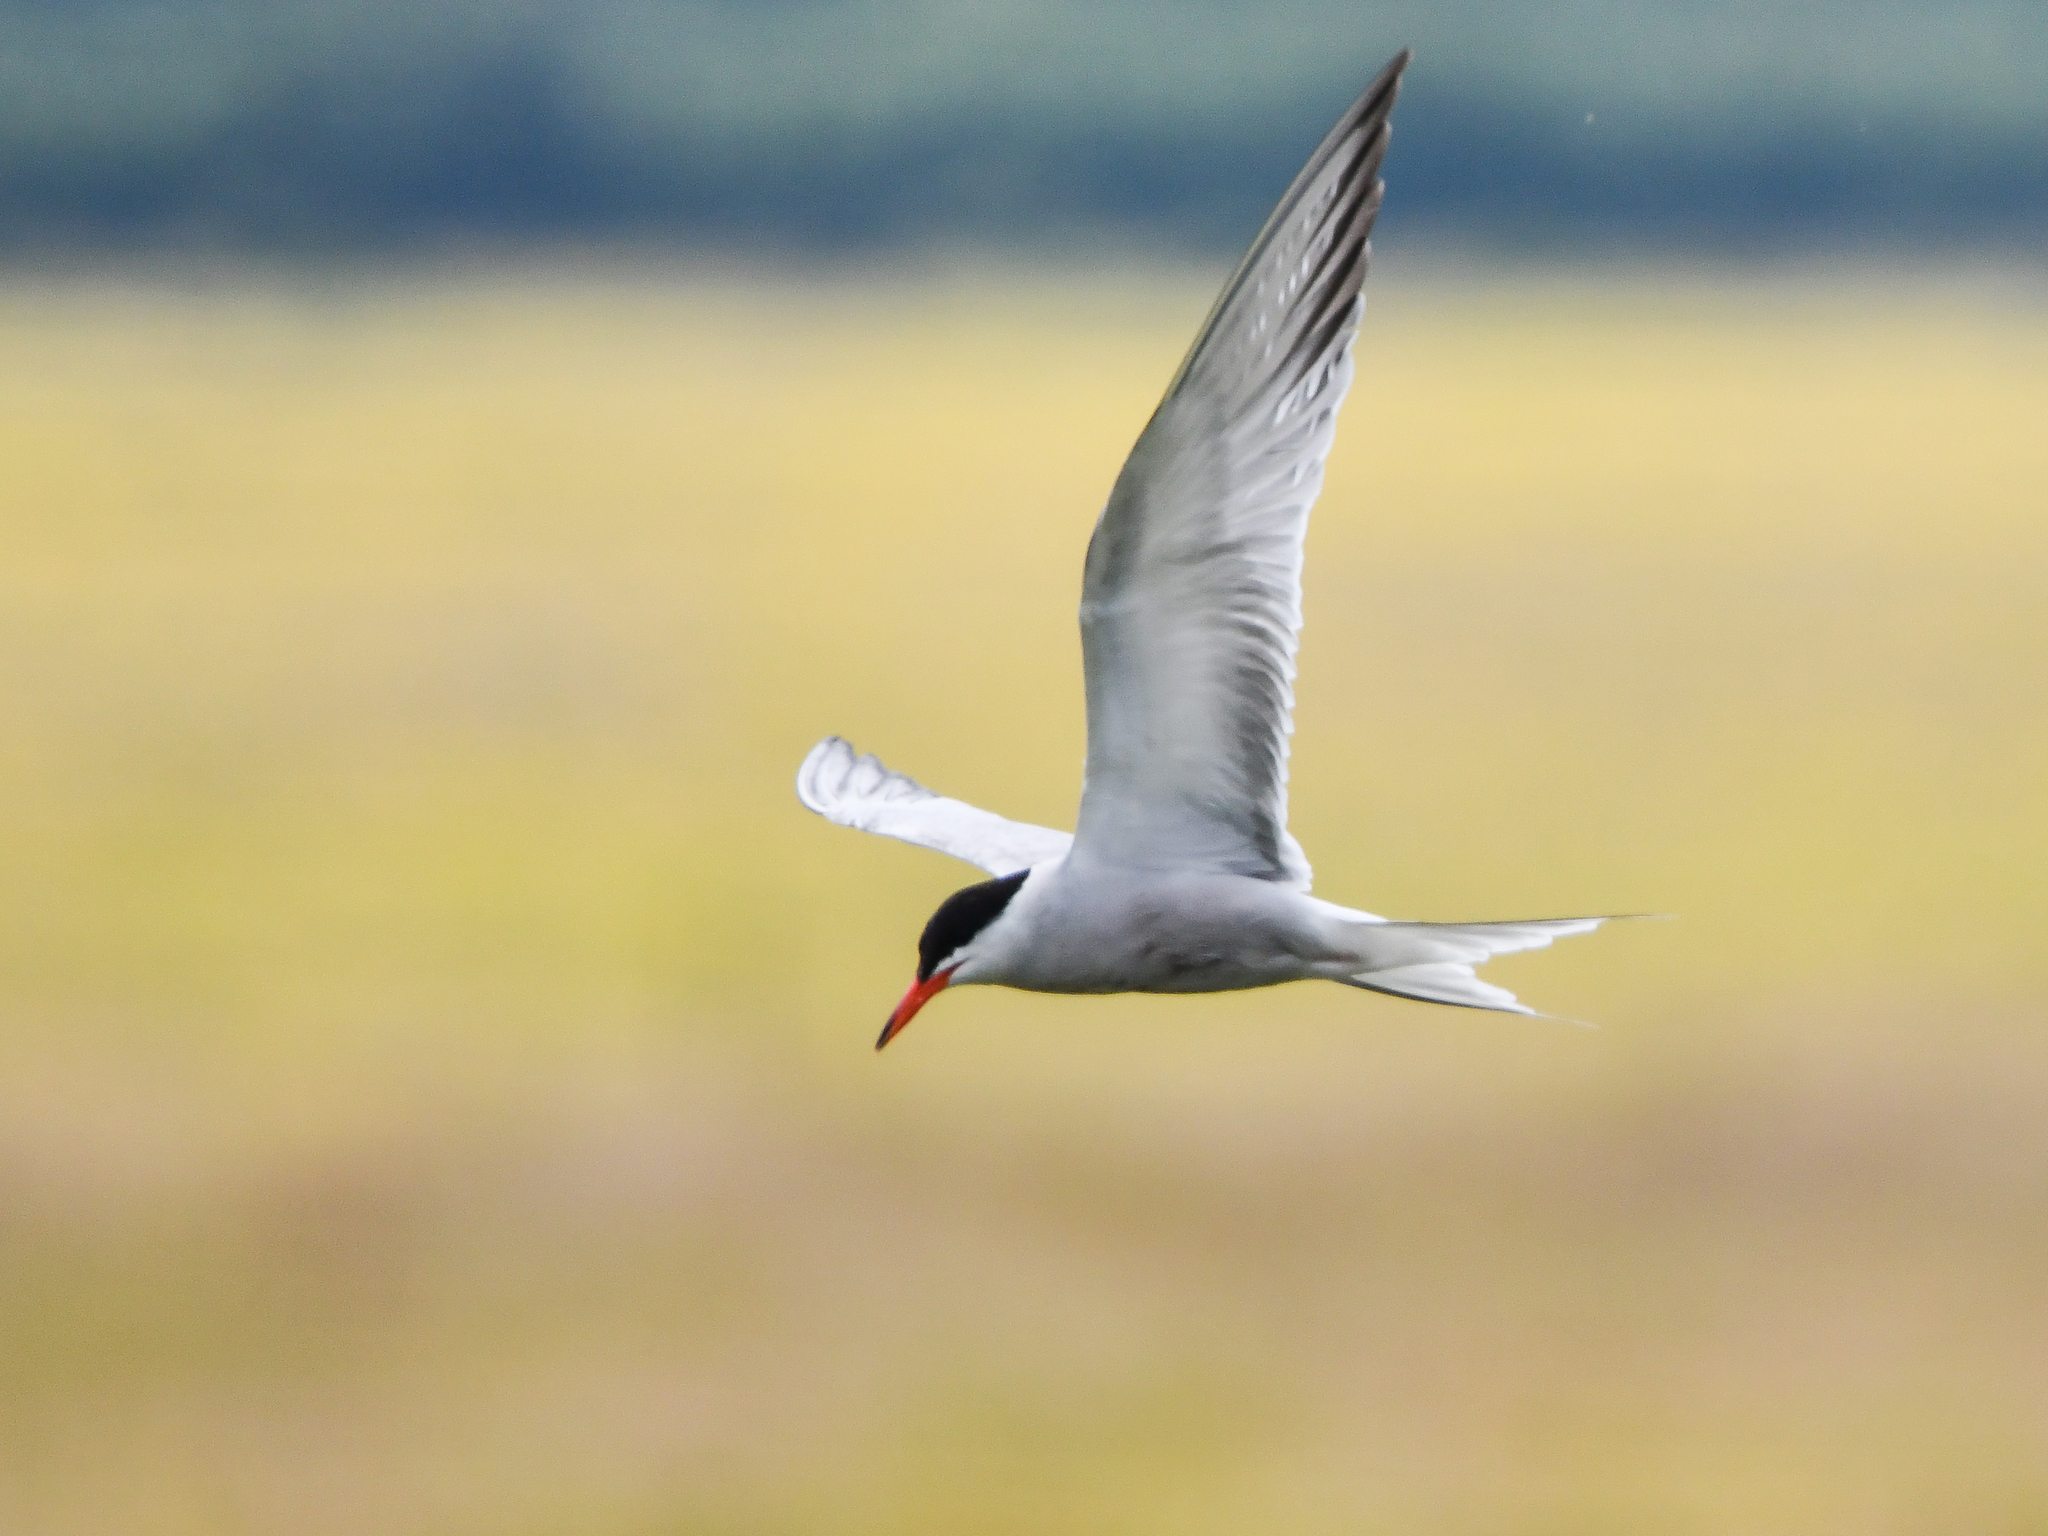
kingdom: Animalia
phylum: Chordata
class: Aves
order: Charadriiformes
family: Laridae
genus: Sterna
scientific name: Sterna hirundo
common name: Common tern
